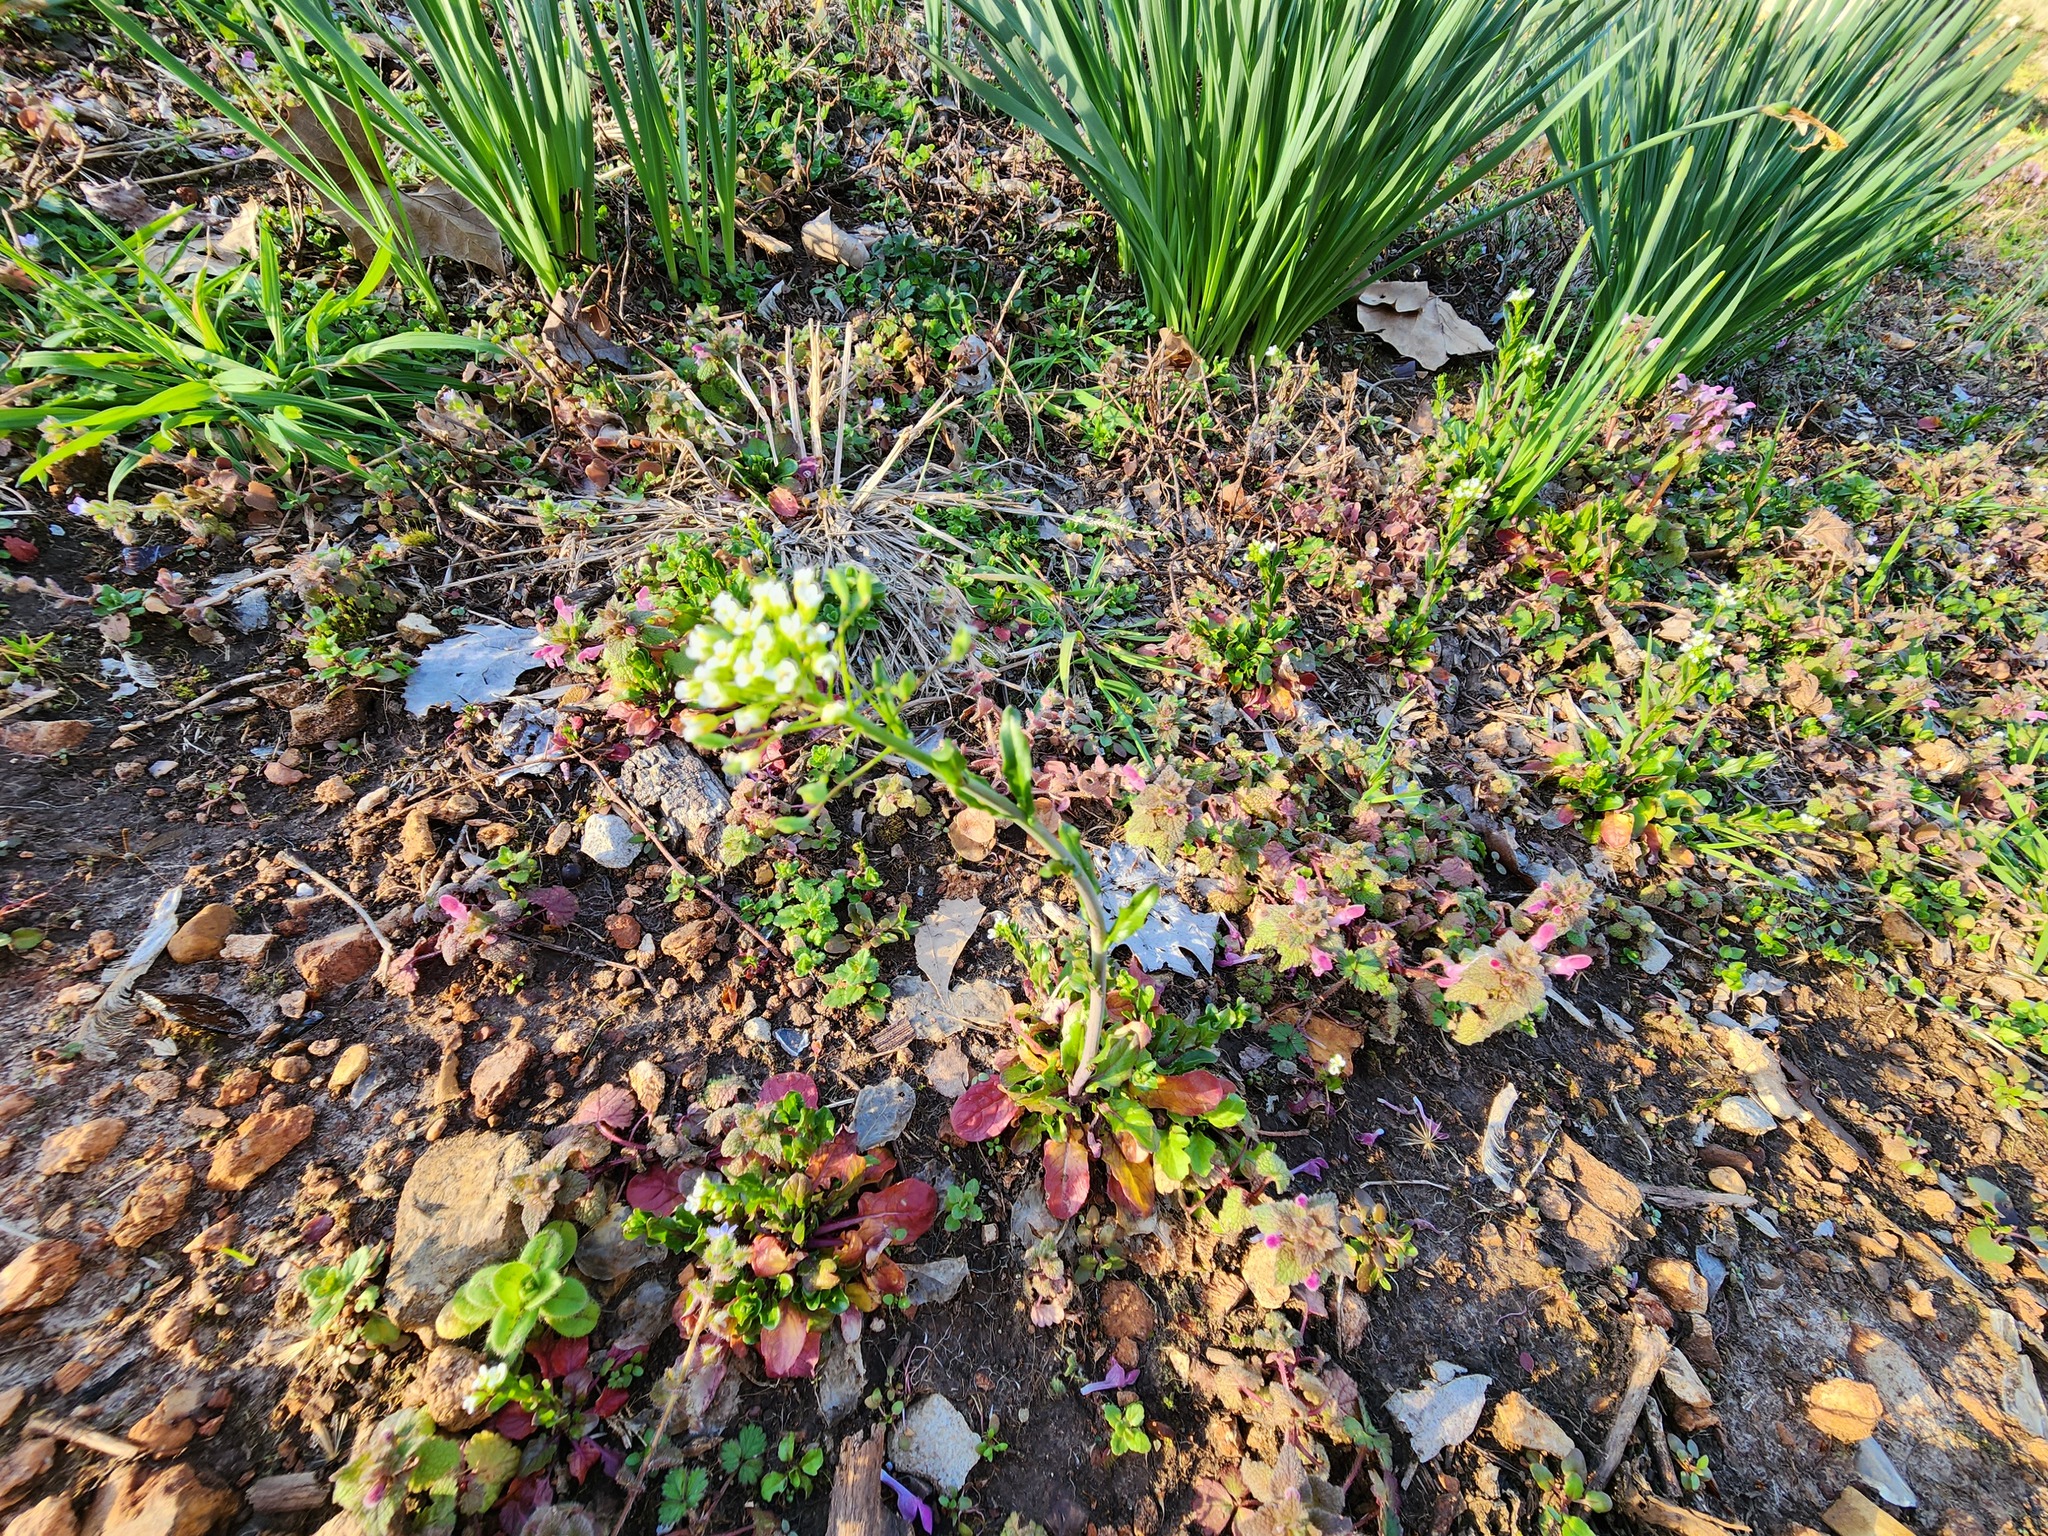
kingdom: Plantae
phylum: Tracheophyta
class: Magnoliopsida
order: Brassicales
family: Brassicaceae
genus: Mummenhoffia
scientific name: Mummenhoffia alliacea
